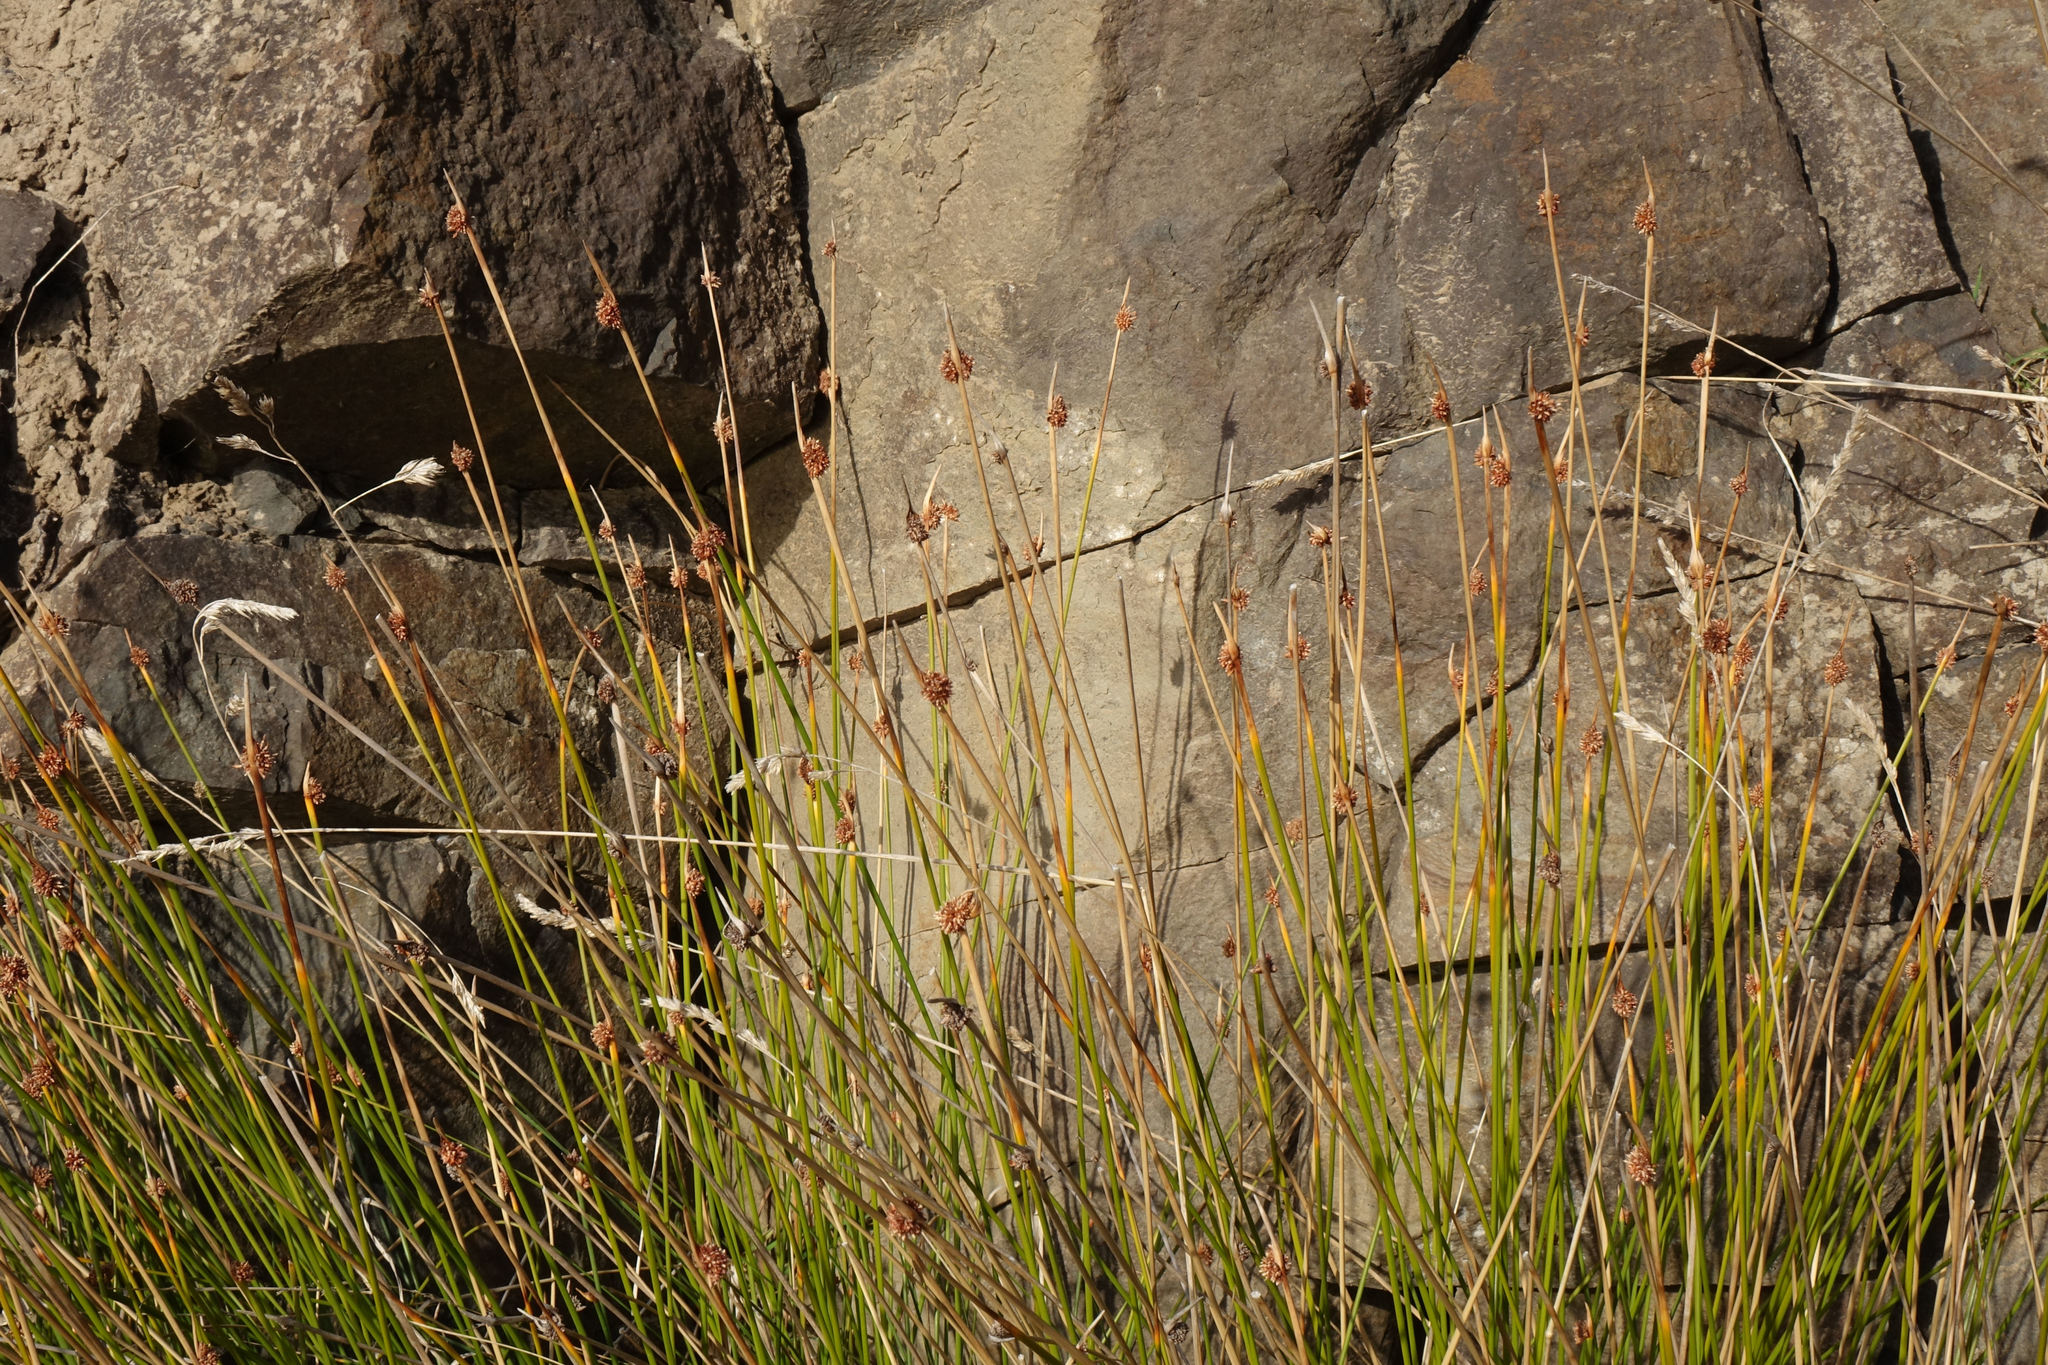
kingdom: Plantae
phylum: Tracheophyta
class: Liliopsida
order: Poales
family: Cyperaceae
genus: Ficinia
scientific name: Ficinia nodosa
